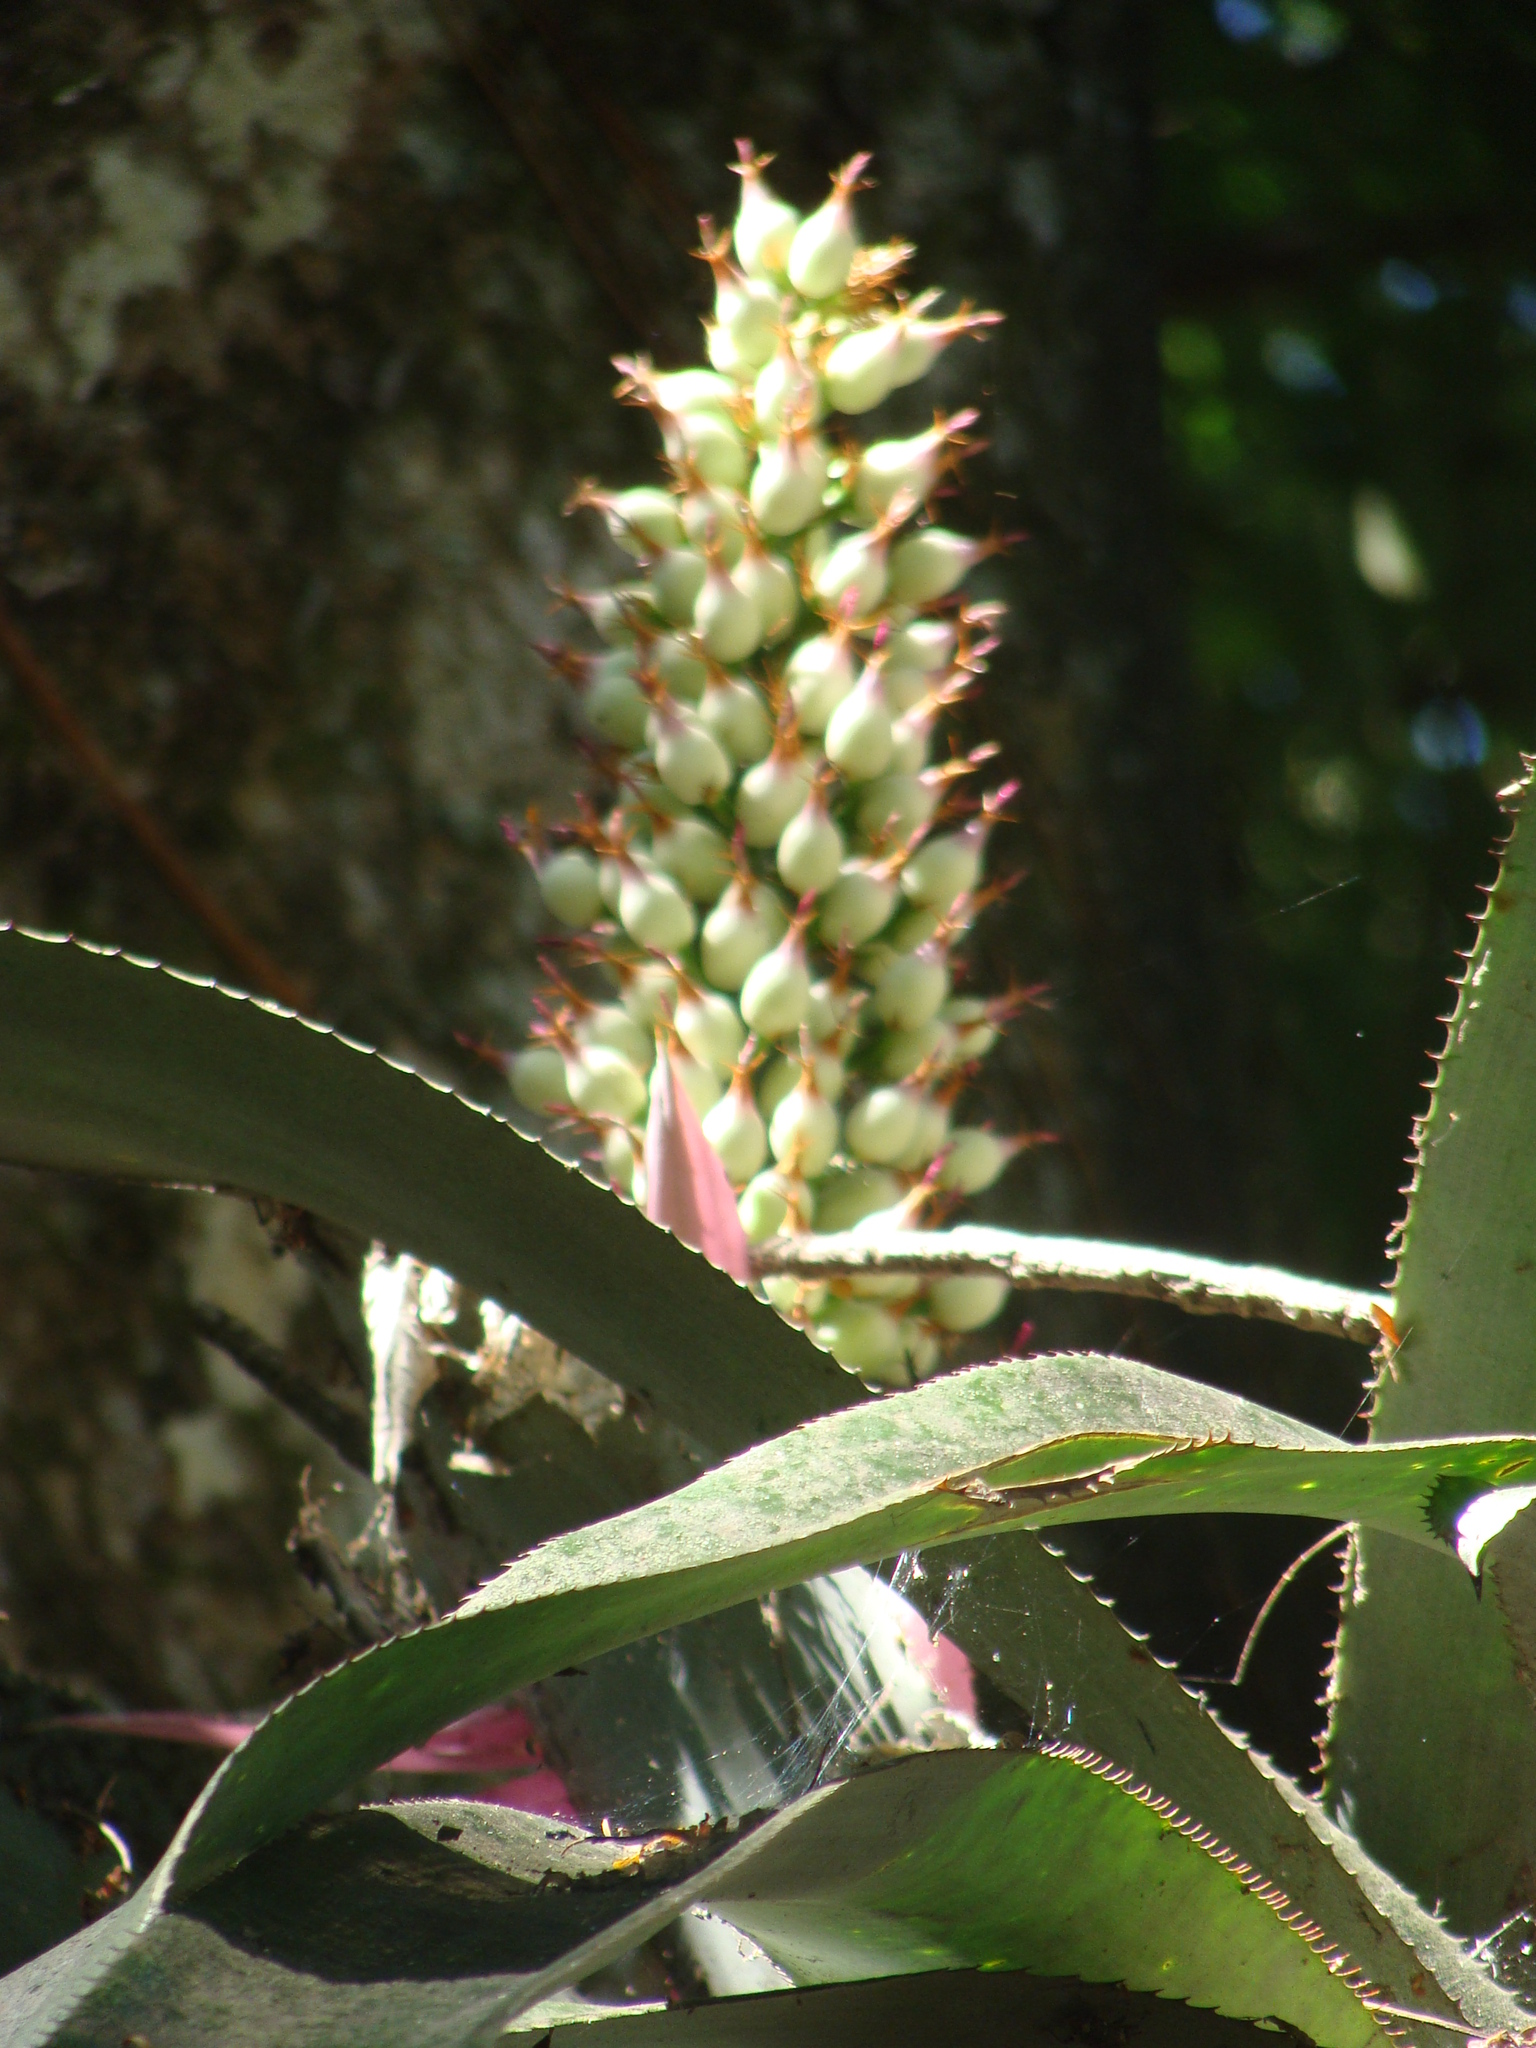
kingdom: Plantae
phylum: Tracheophyta
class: Liliopsida
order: Poales
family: Bromeliaceae
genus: Aechmea
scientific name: Aechmea matudae
